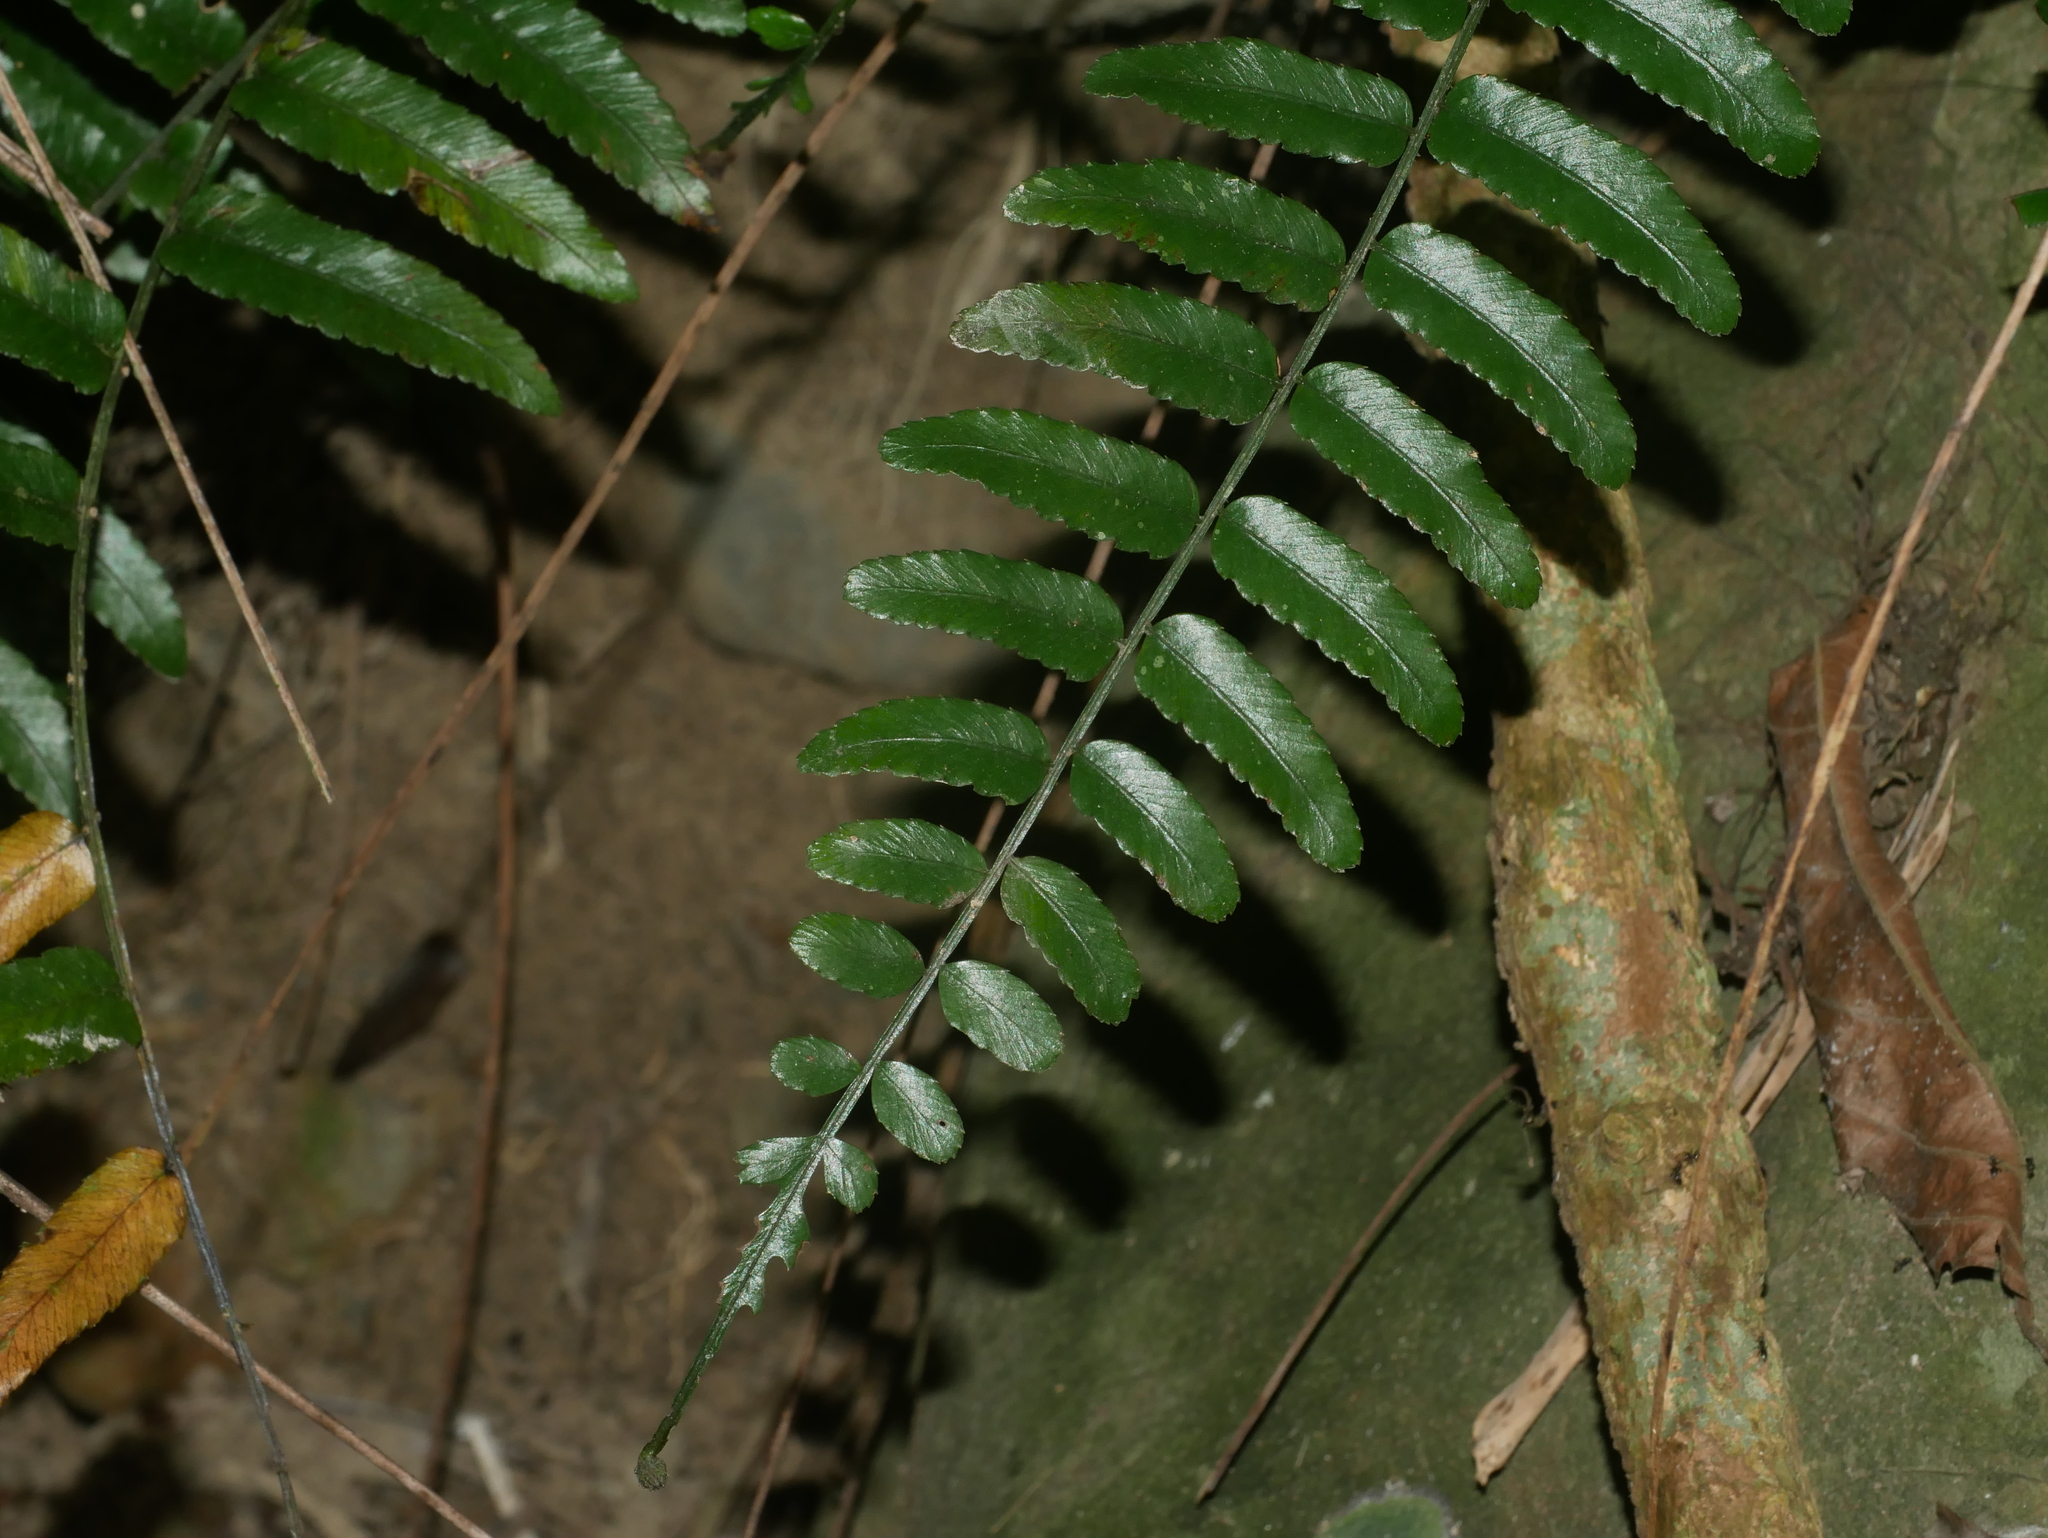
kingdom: Plantae
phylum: Tracheophyta
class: Polypodiopsida
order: Polypodiales
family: Dryopteridaceae
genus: Bolbitis
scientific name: Bolbitis rhizophylla
